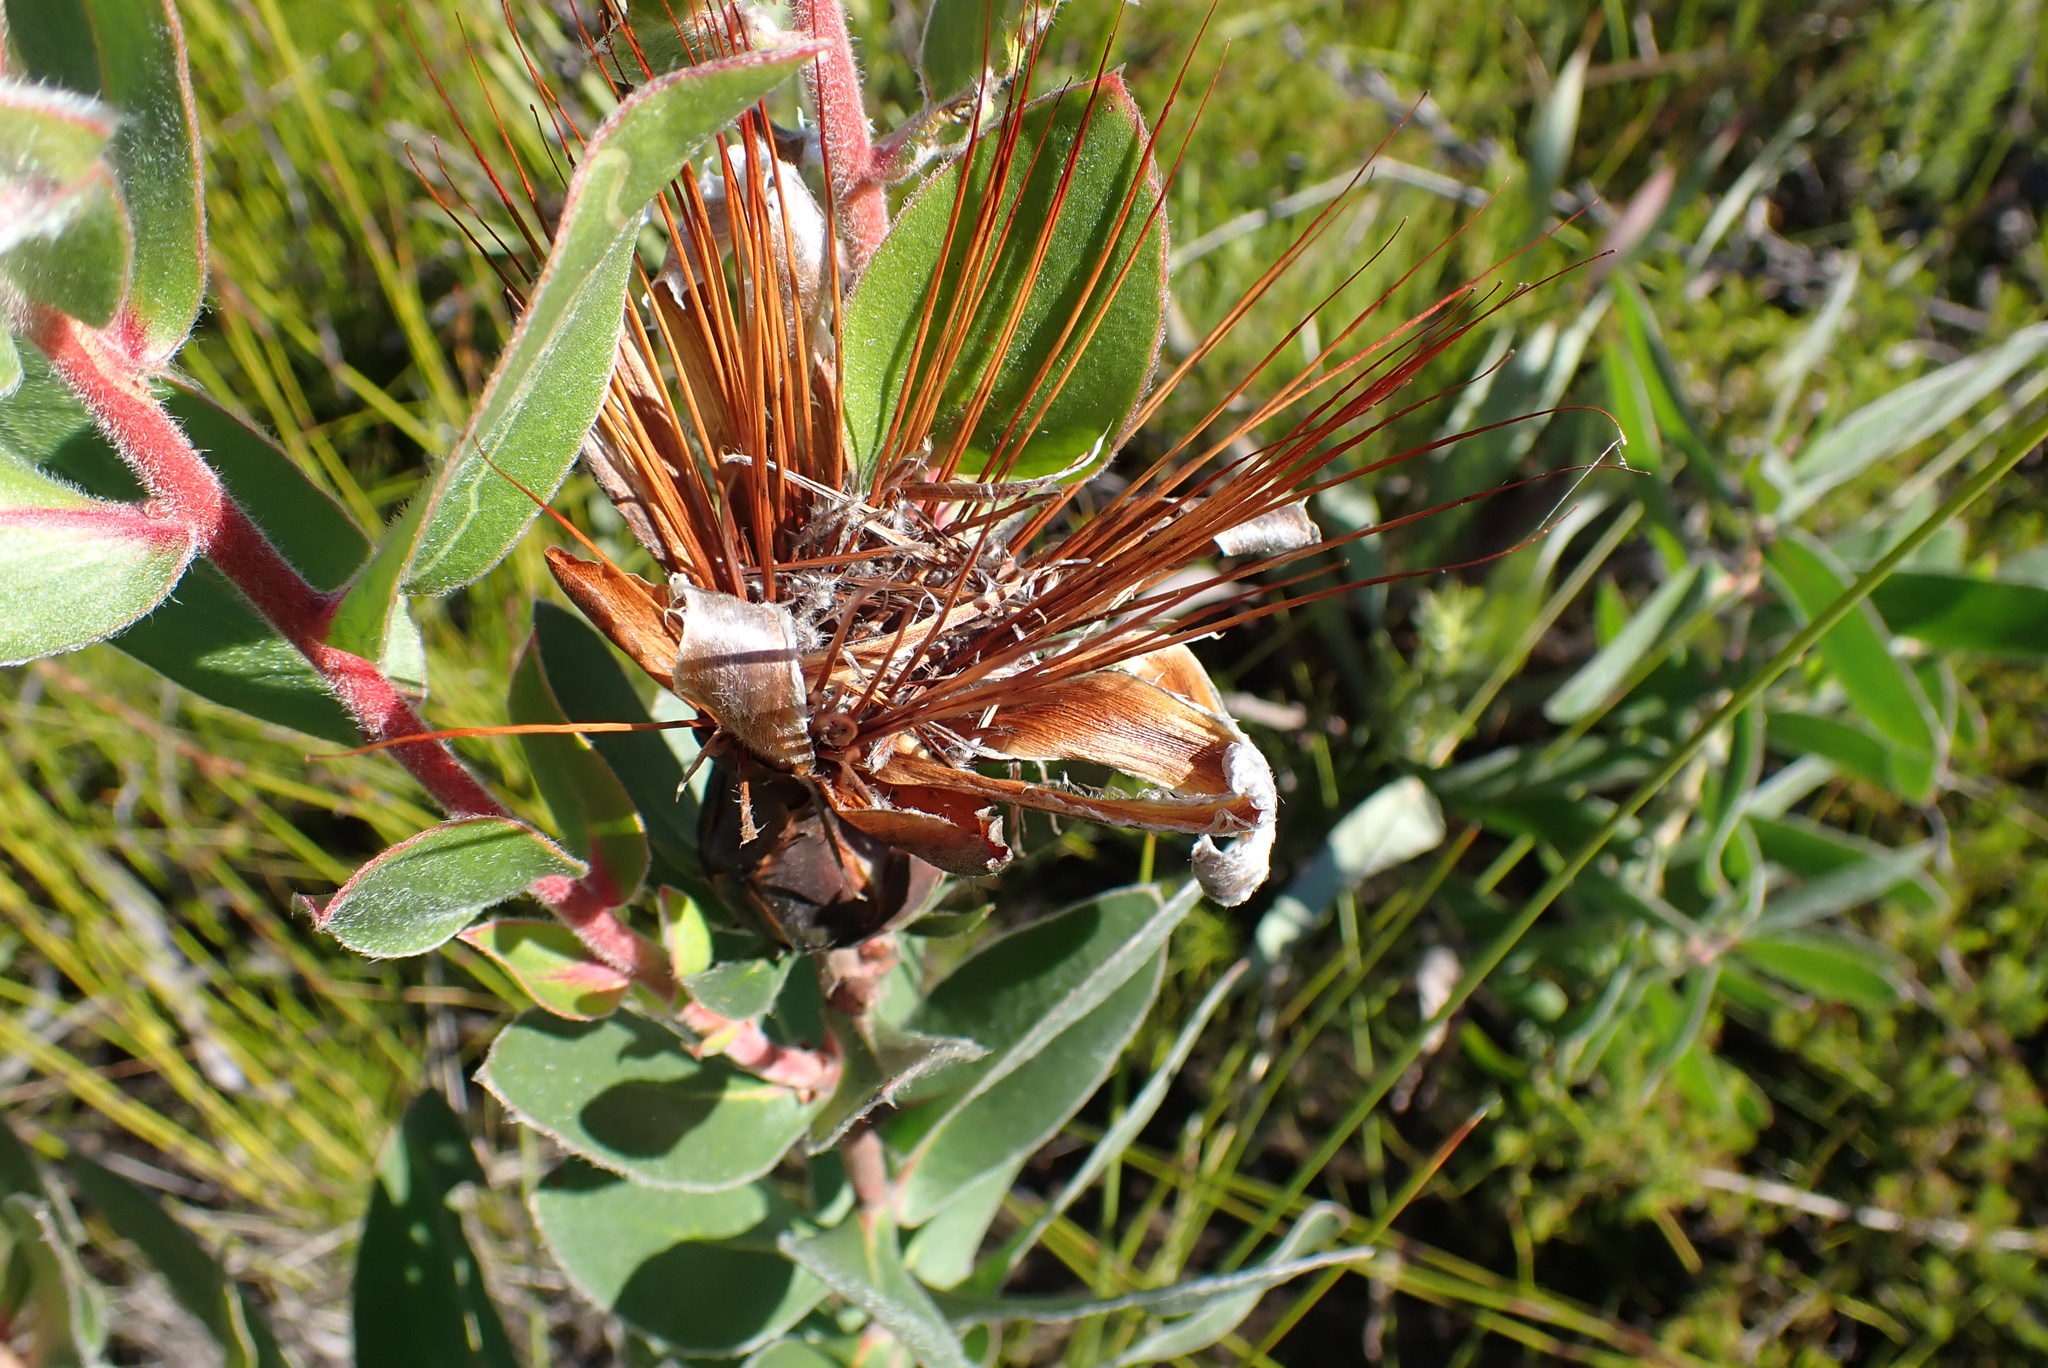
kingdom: Plantae
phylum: Tracheophyta
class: Magnoliopsida
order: Proteales
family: Proteaceae
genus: Protea
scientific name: Protea aurea
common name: Shuttlecock sugarbush
